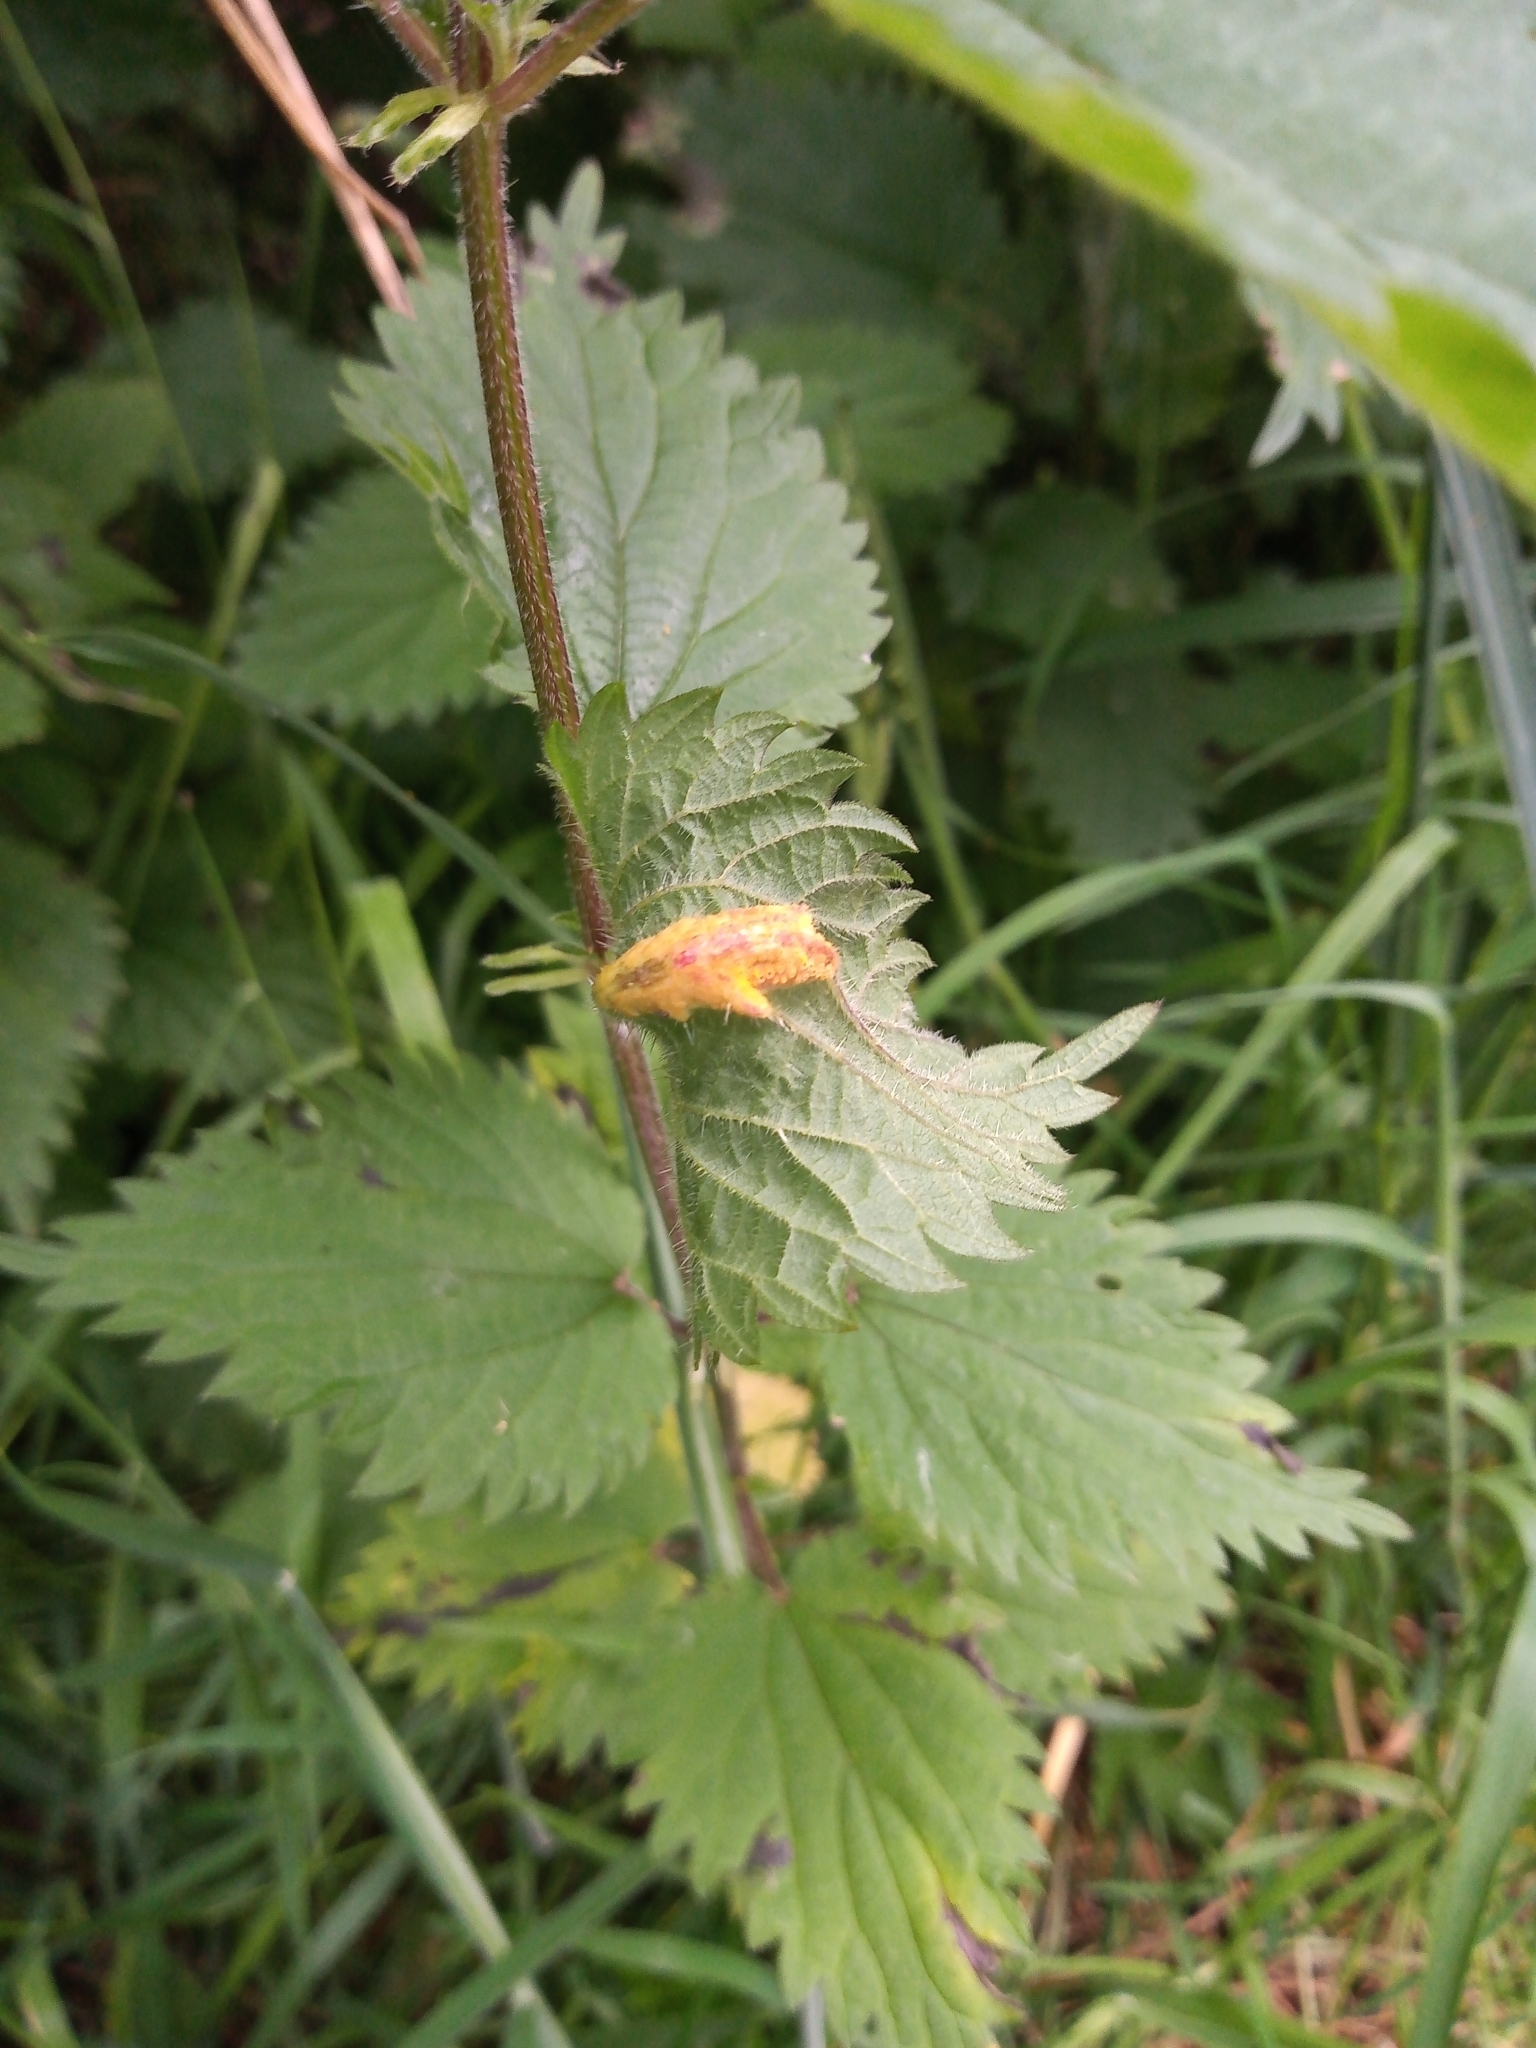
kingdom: Fungi
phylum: Basidiomycota
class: Pucciniomycetes
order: Pucciniales
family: Pucciniaceae
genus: Puccinia
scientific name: Puccinia urticata
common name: Nettle clustercup rust fungus
